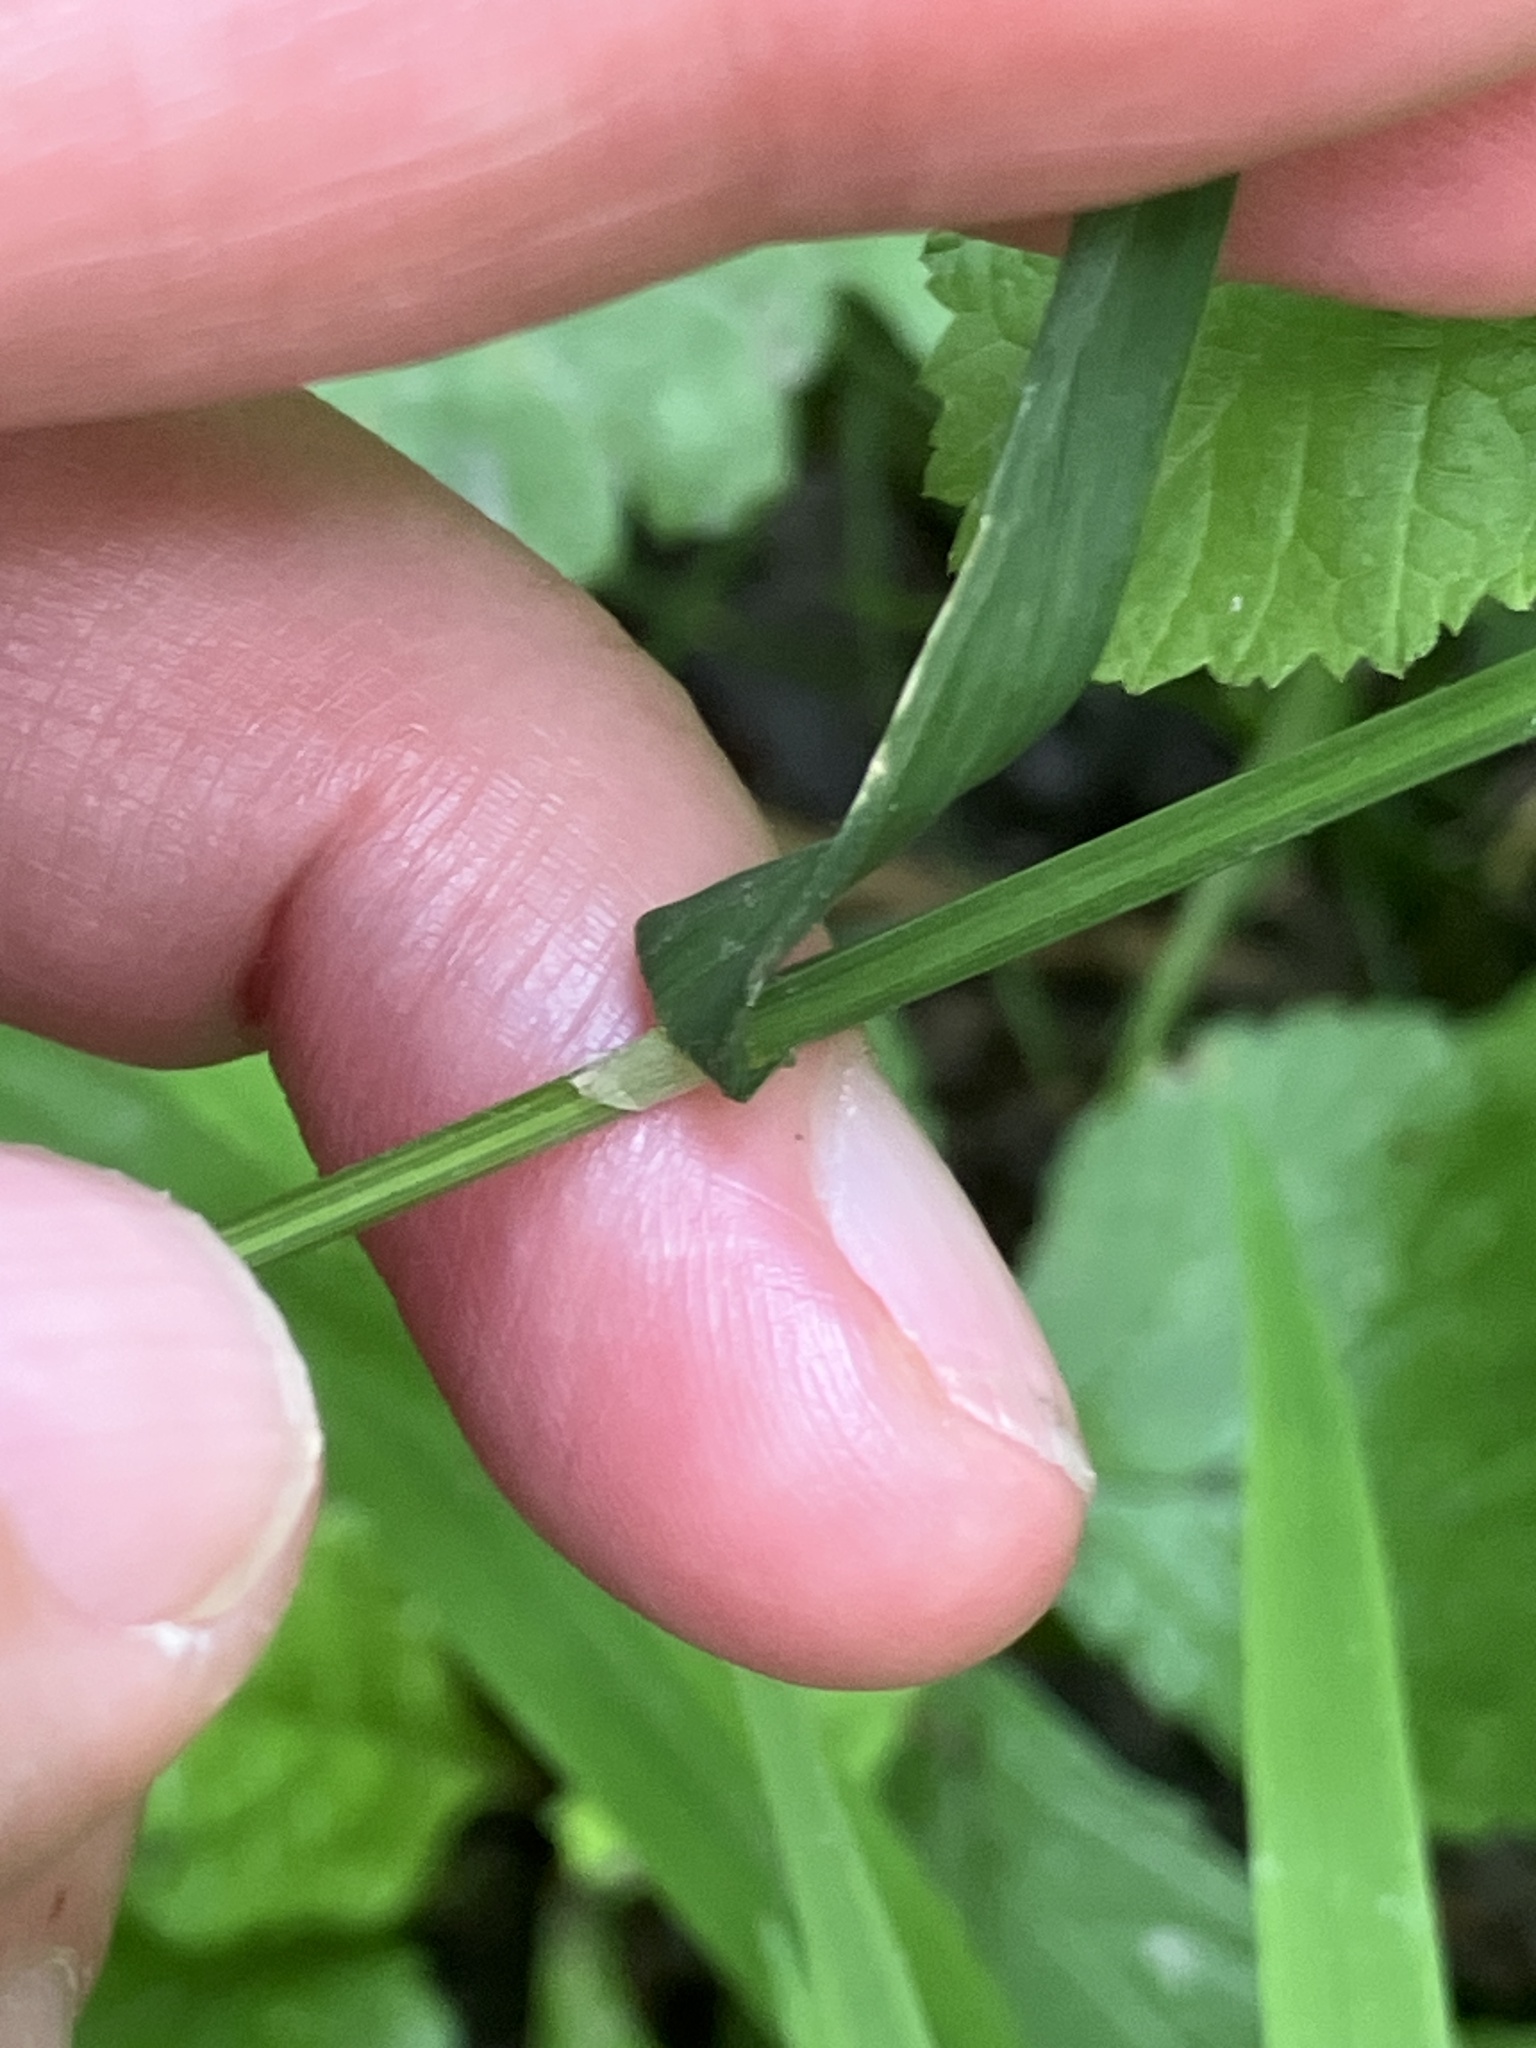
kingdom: Plantae
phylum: Tracheophyta
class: Liliopsida
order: Poales
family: Poaceae
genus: Poa
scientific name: Poa trivialis
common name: Rough bluegrass
